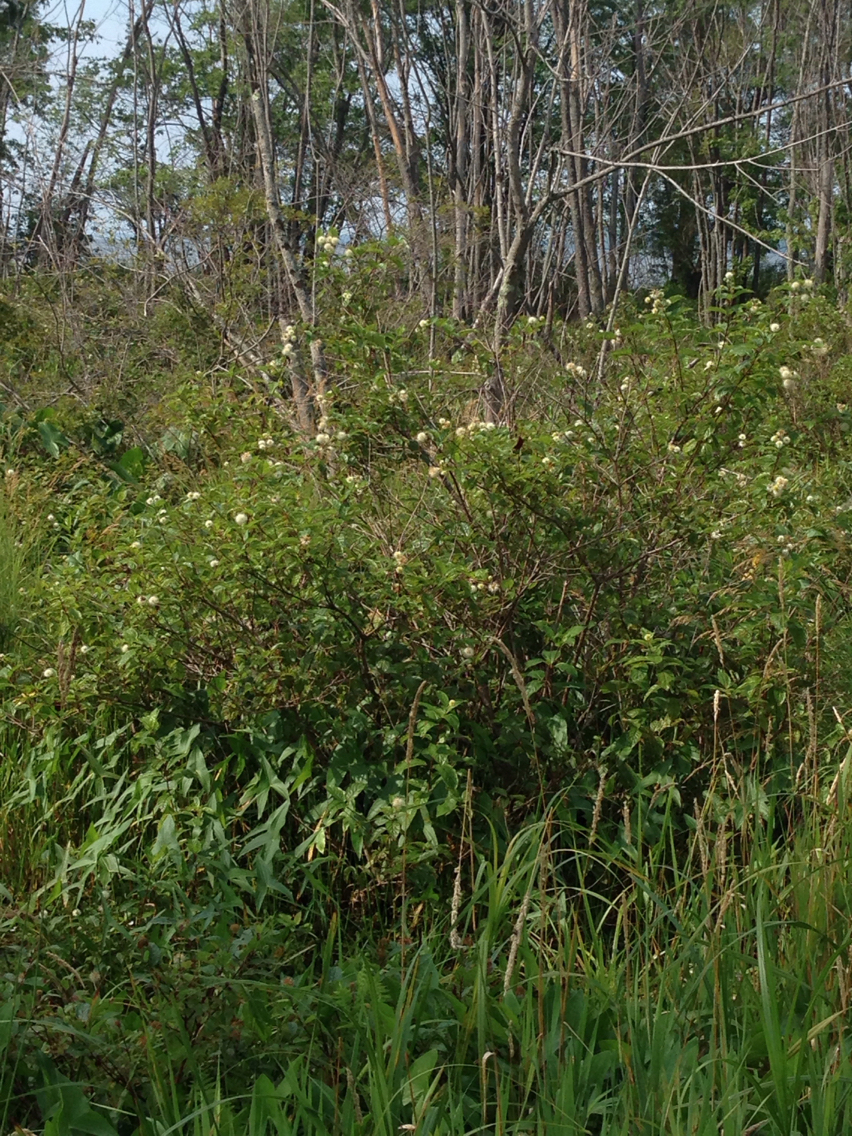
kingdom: Plantae
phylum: Tracheophyta
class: Magnoliopsida
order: Gentianales
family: Rubiaceae
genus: Cephalanthus
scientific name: Cephalanthus occidentalis
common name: Button-willow
